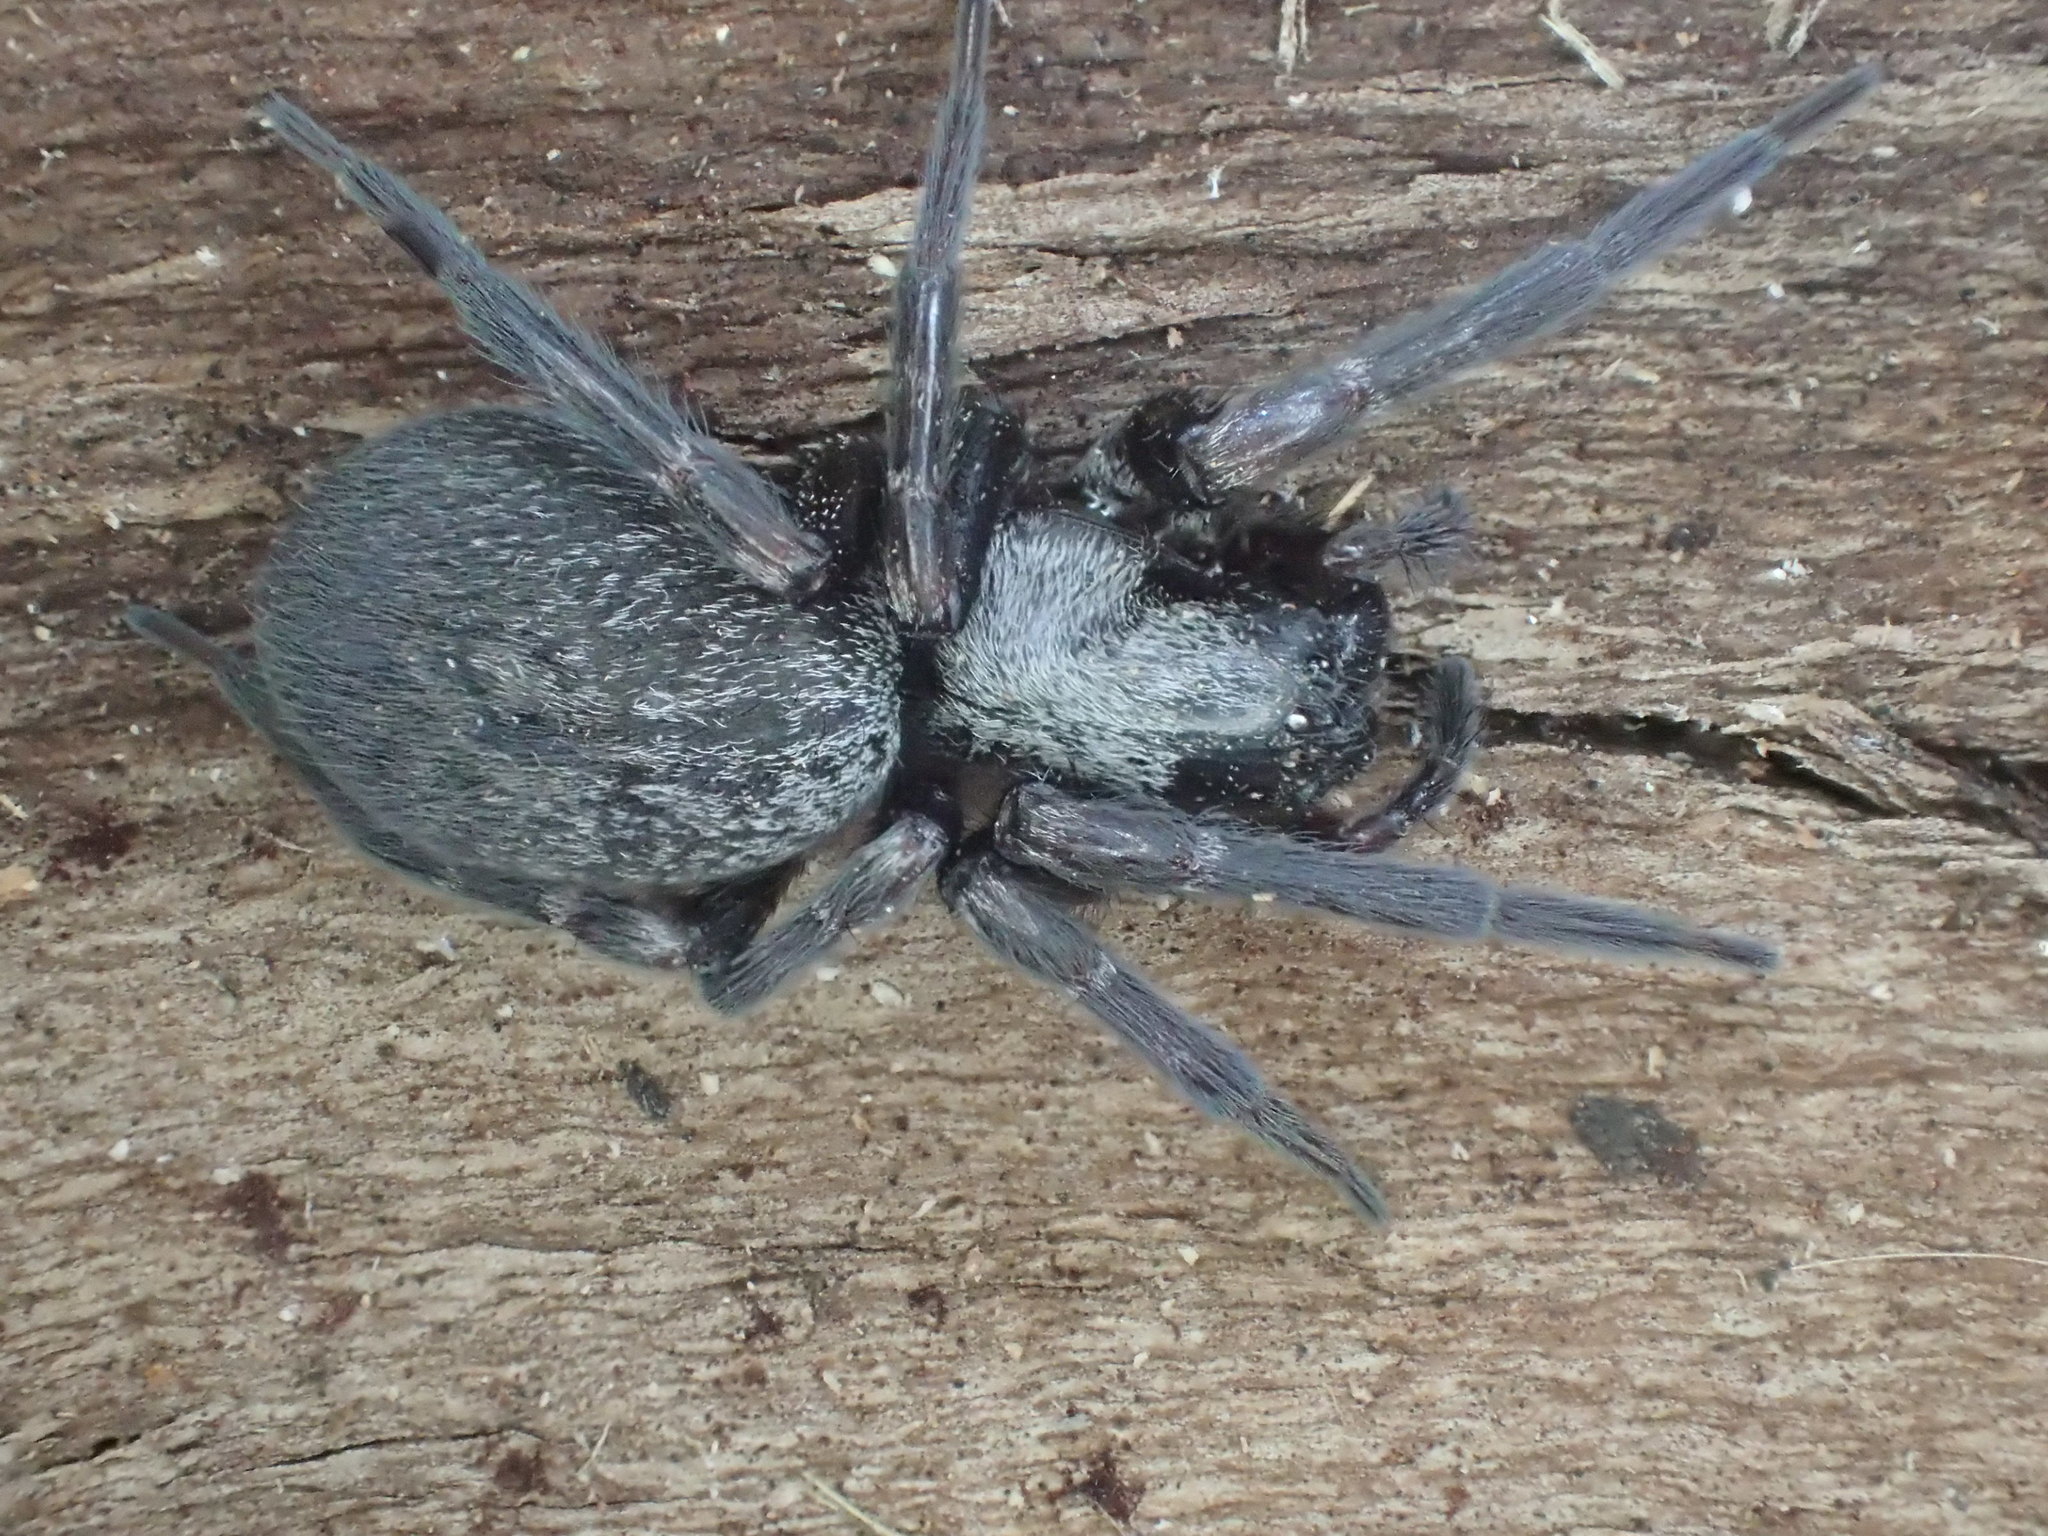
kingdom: Animalia
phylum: Arthropoda
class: Arachnida
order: Araneae
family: Desidae
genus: Badumna
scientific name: Badumna insignis
